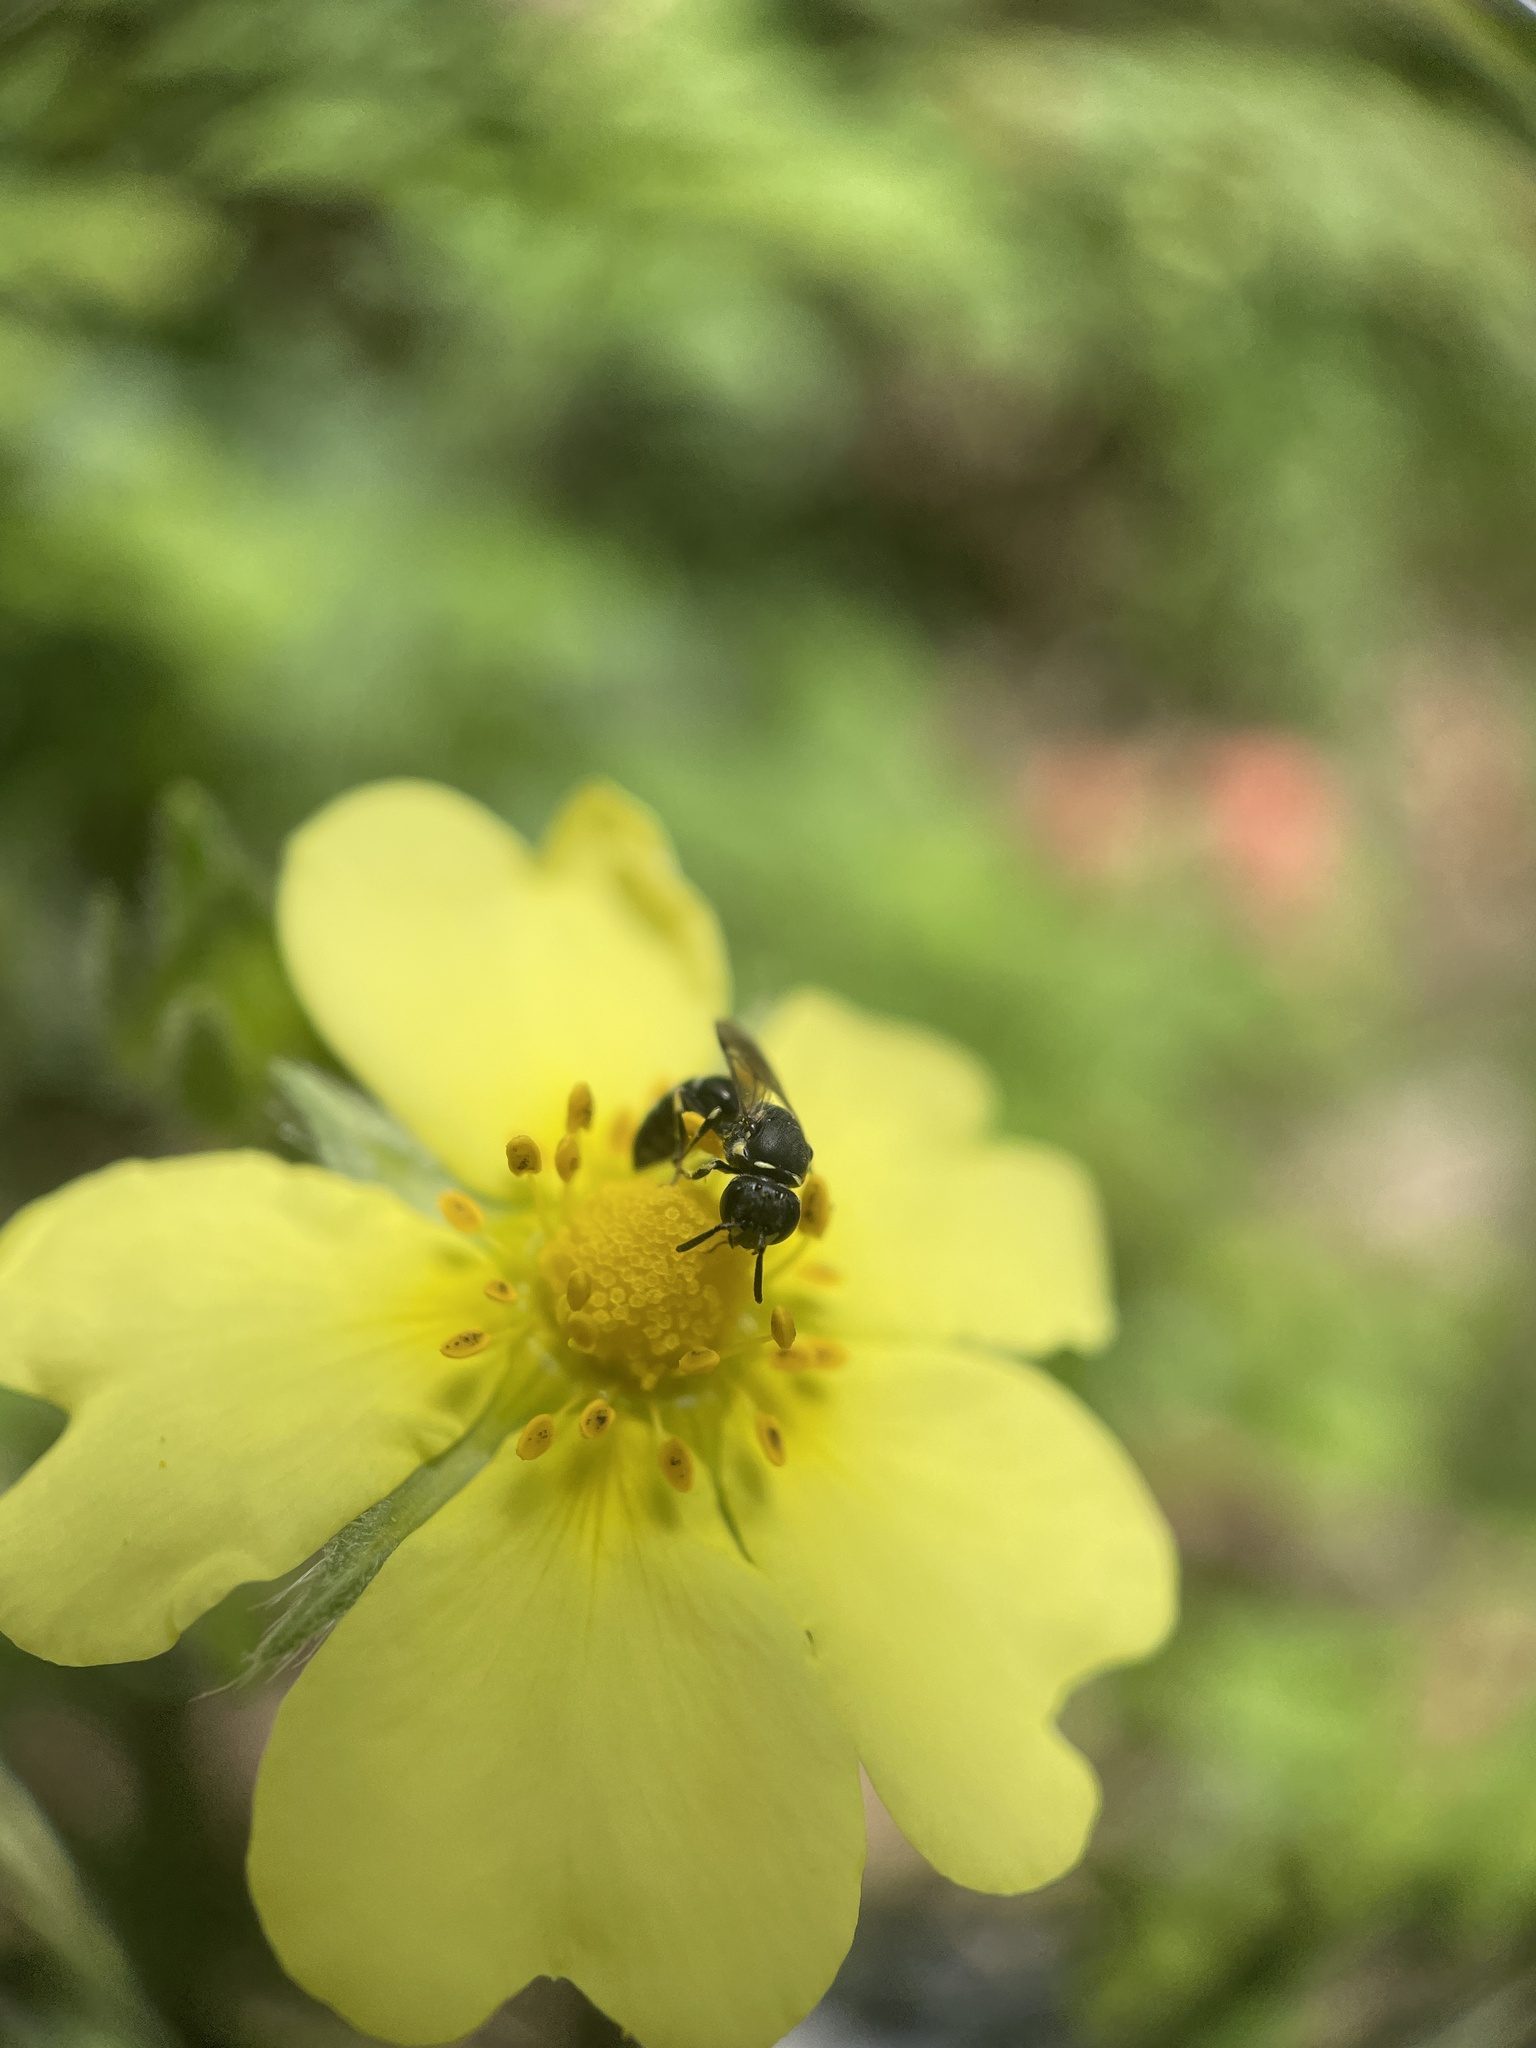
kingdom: Animalia
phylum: Arthropoda
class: Insecta
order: Hymenoptera
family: Colletidae
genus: Hylaeus
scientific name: Hylaeus modestus
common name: Yellow-faced bee
